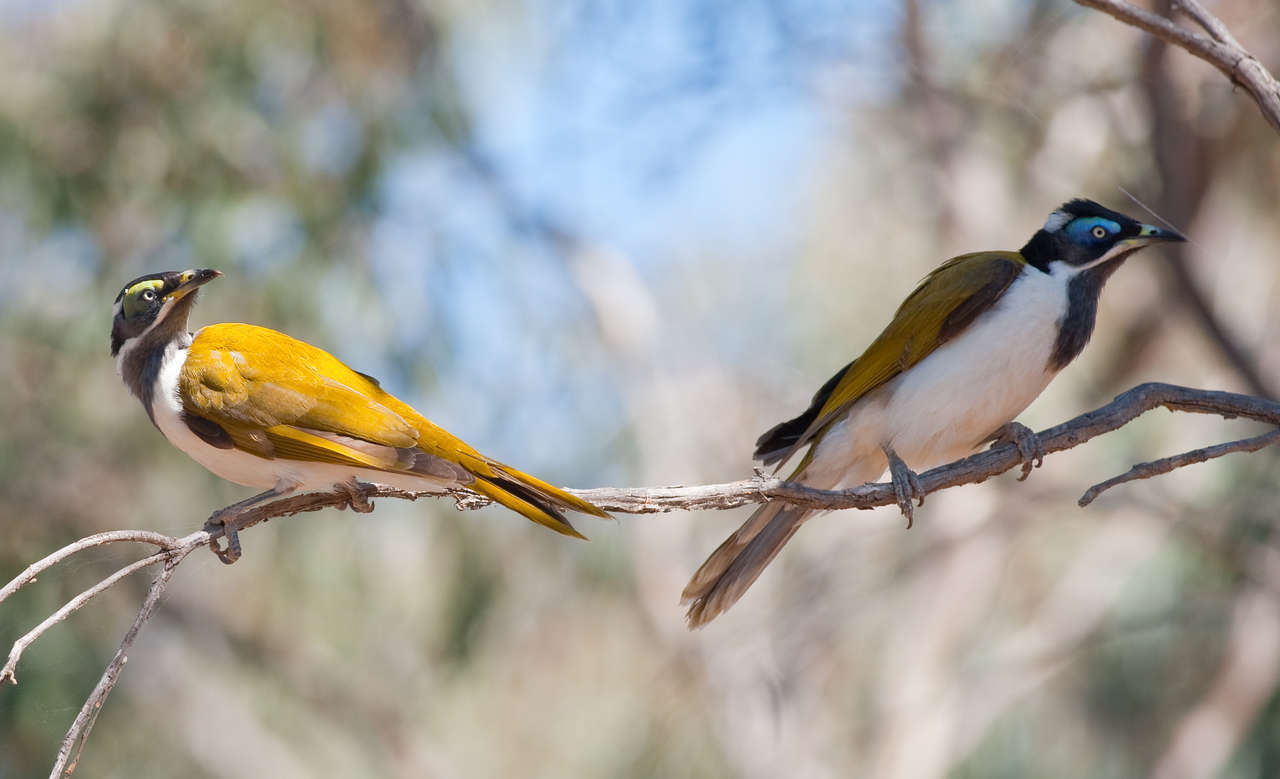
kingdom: Animalia
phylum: Chordata
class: Aves
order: Passeriformes
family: Meliphagidae
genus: Entomyzon
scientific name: Entomyzon cyanotis
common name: Blue-faced honeyeater
